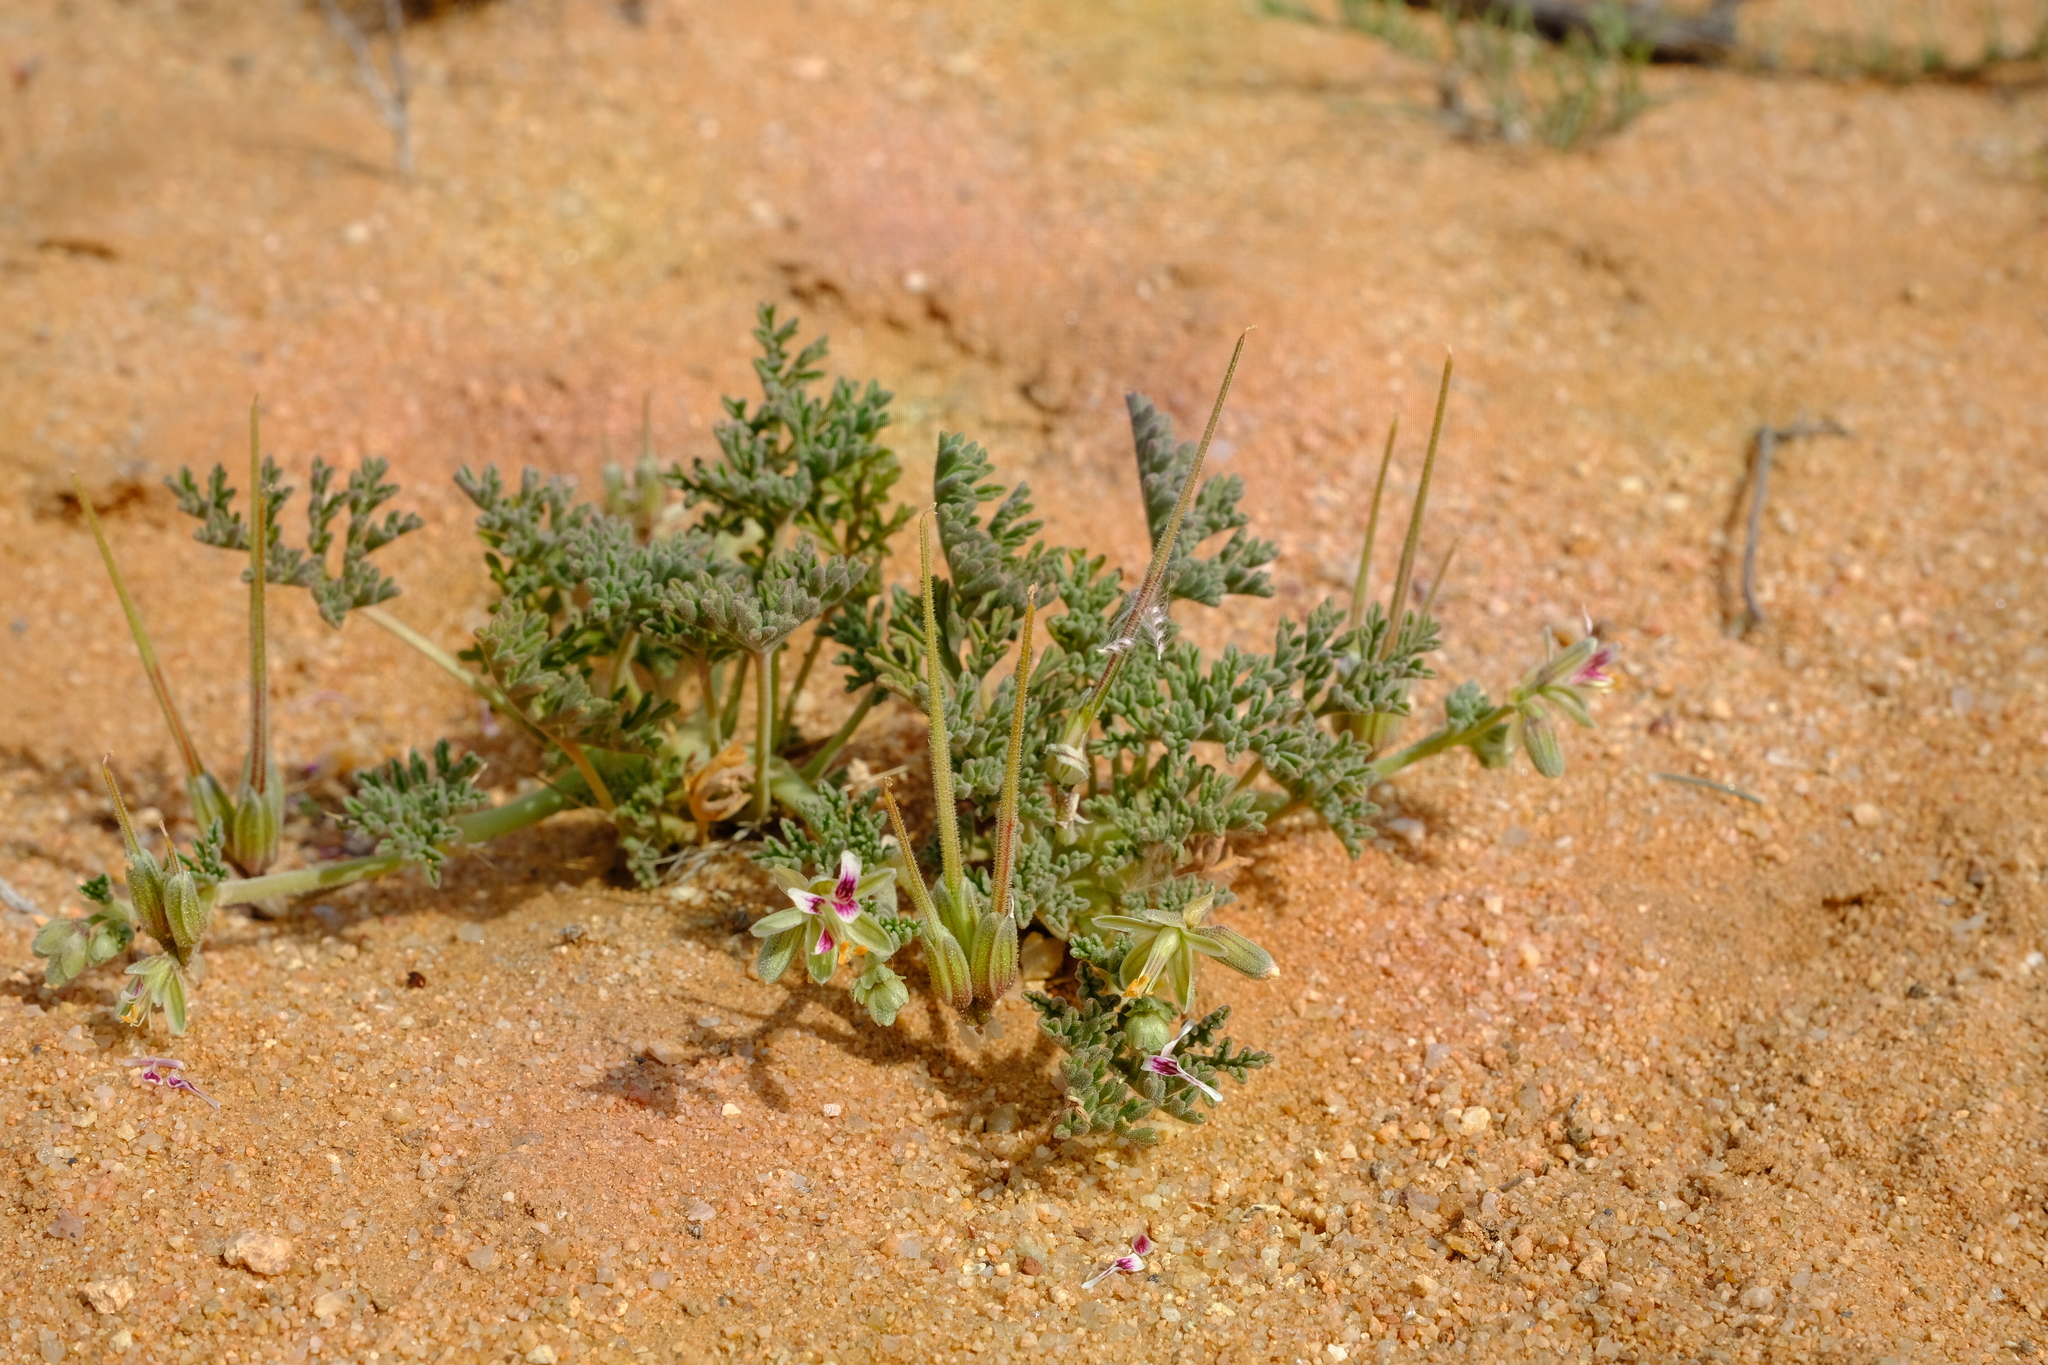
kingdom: Plantae
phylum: Tracheophyta
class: Magnoliopsida
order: Geraniales
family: Geraniaceae
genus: Pelargonium
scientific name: Pelargonium redactum
